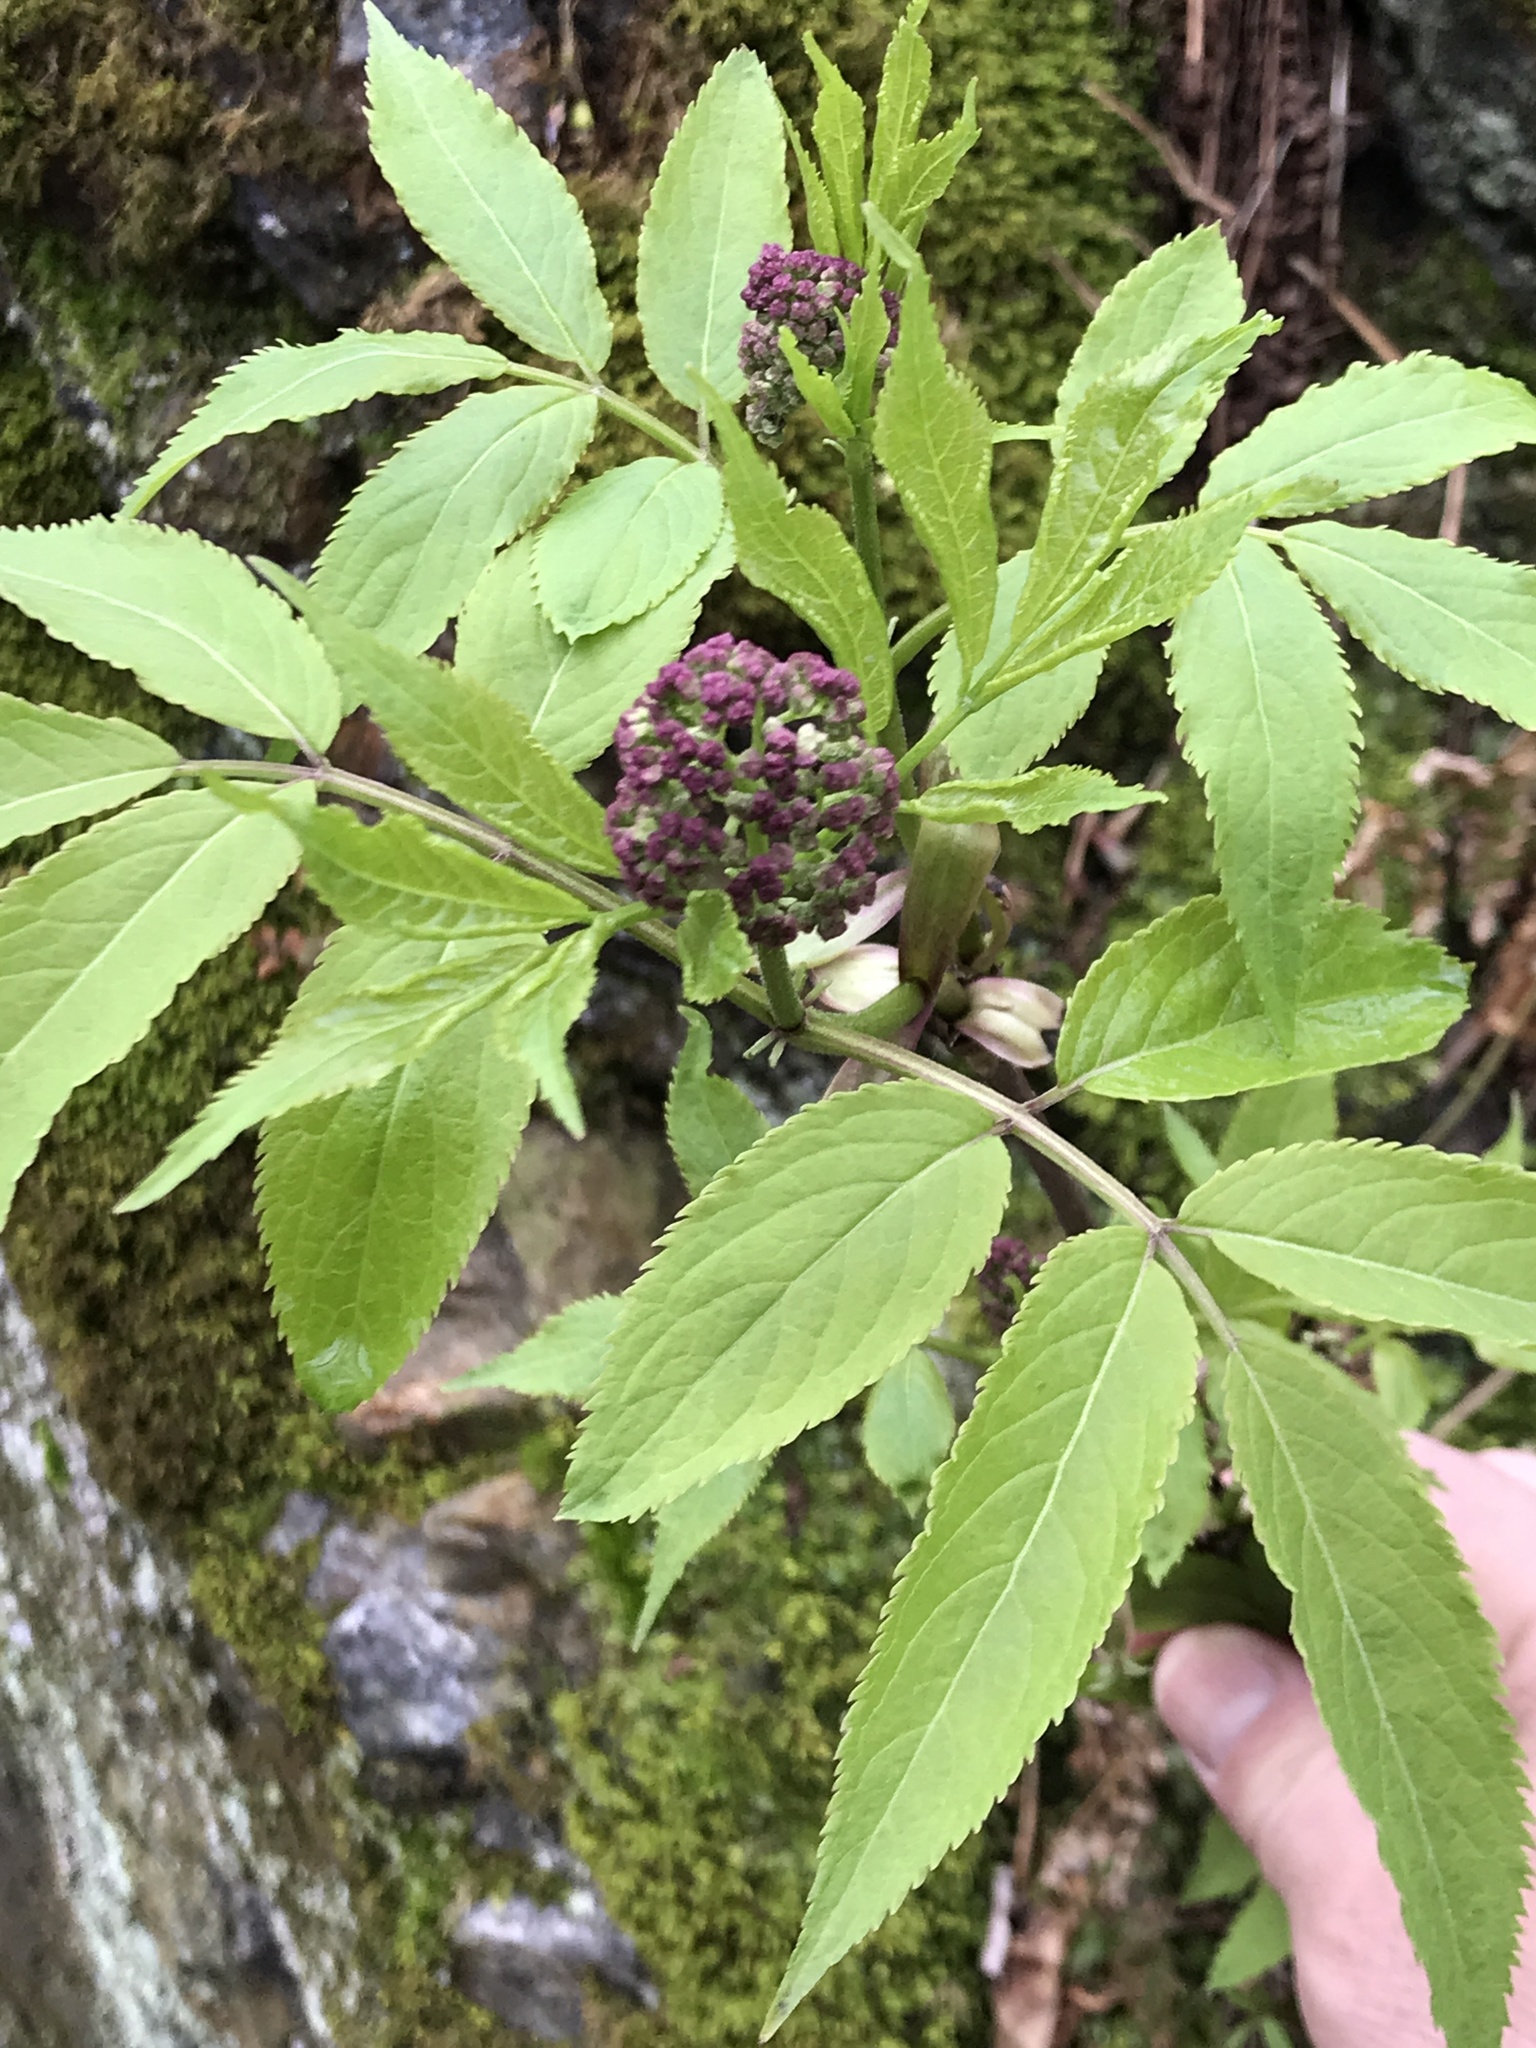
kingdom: Plantae
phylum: Tracheophyta
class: Magnoliopsida
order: Dipsacales
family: Viburnaceae
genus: Sambucus
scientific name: Sambucus racemosa
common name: Red-berried elder
